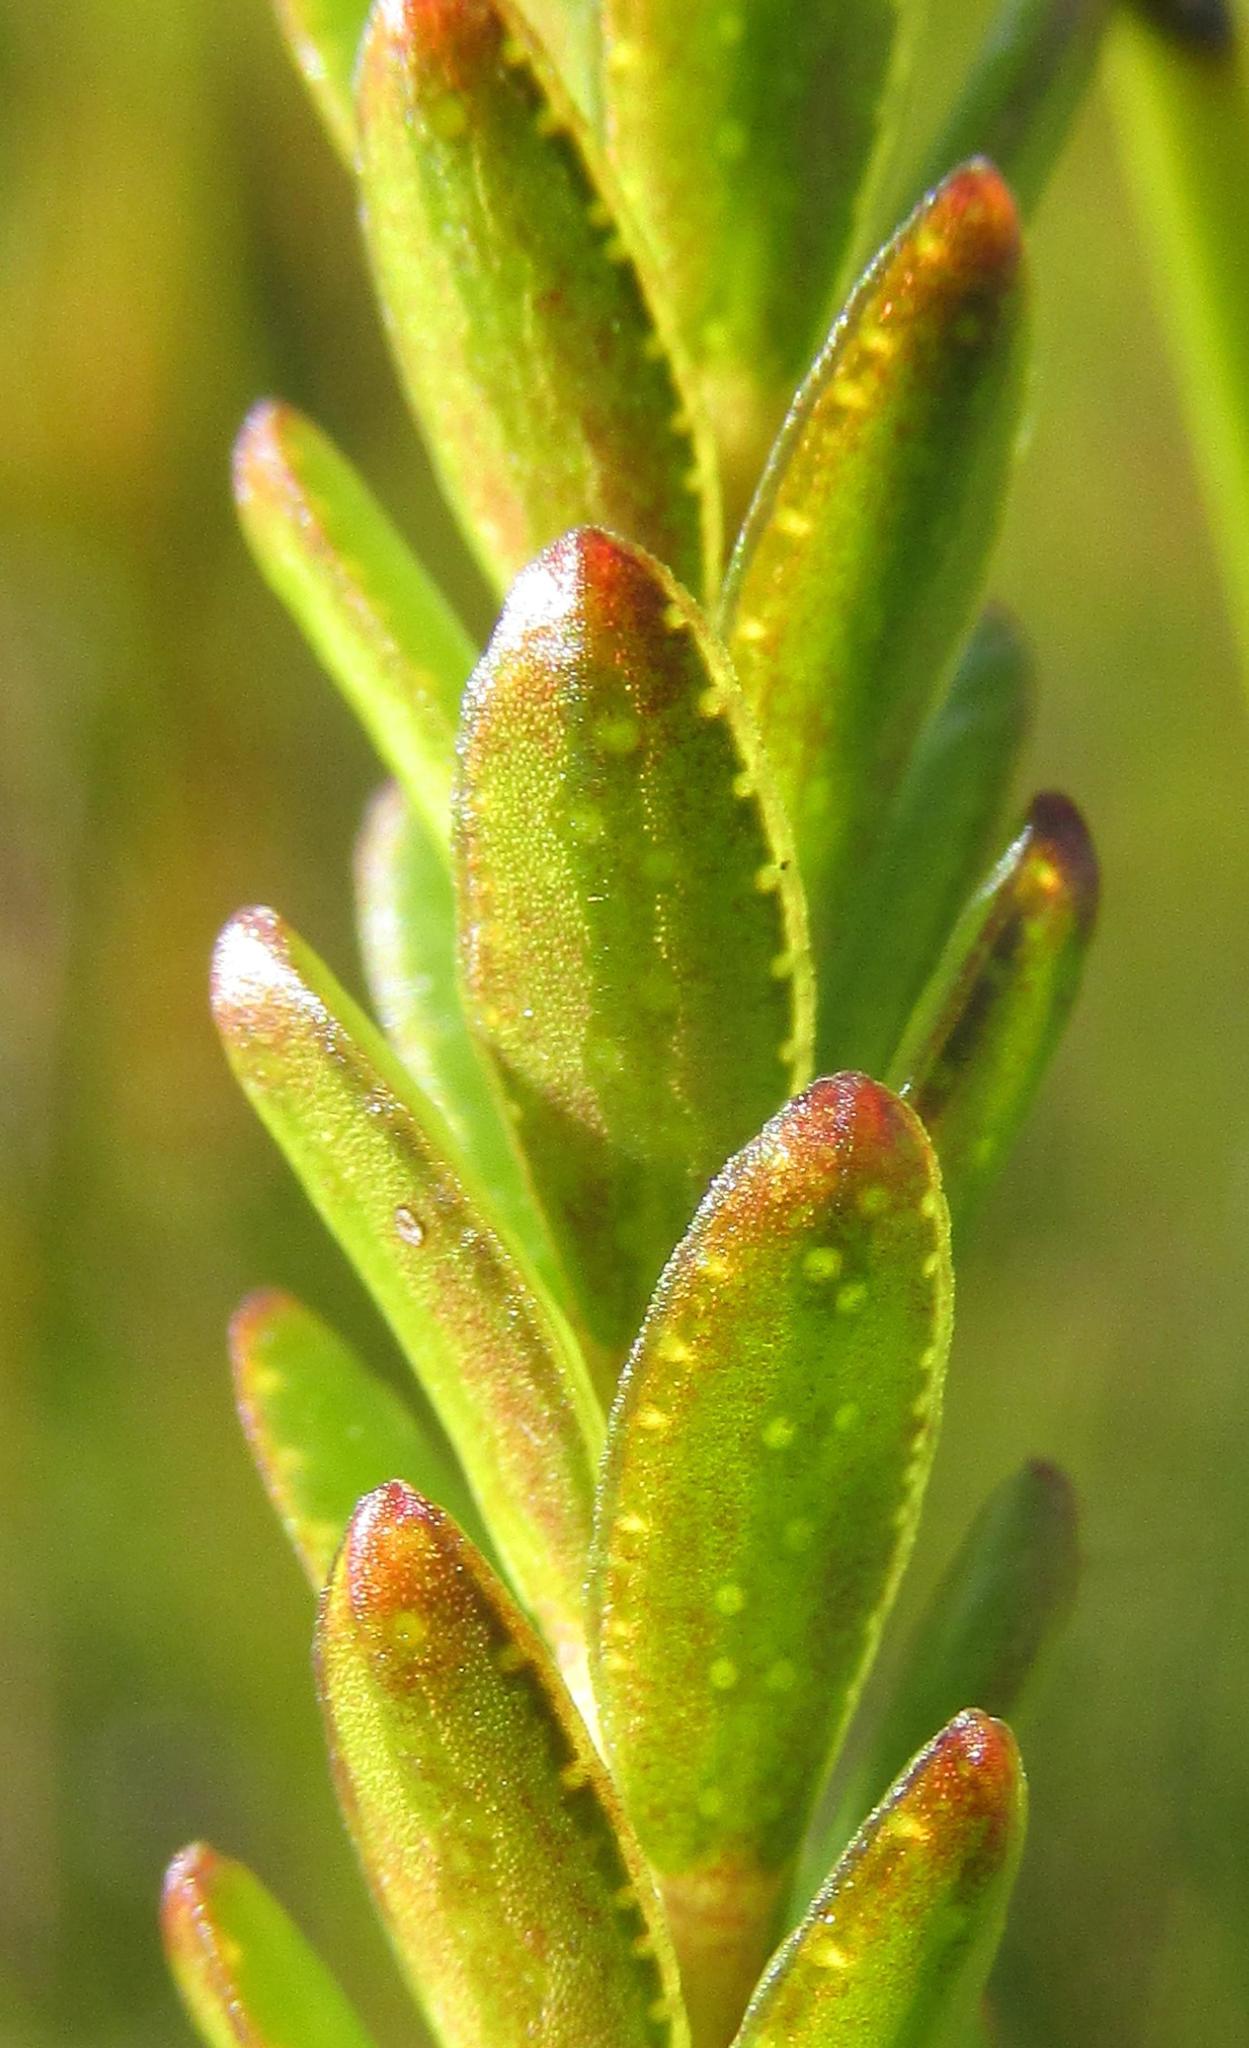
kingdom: Plantae
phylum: Tracheophyta
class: Magnoliopsida
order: Sapindales
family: Rutaceae
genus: Euchaetis
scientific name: Euchaetis glabra
